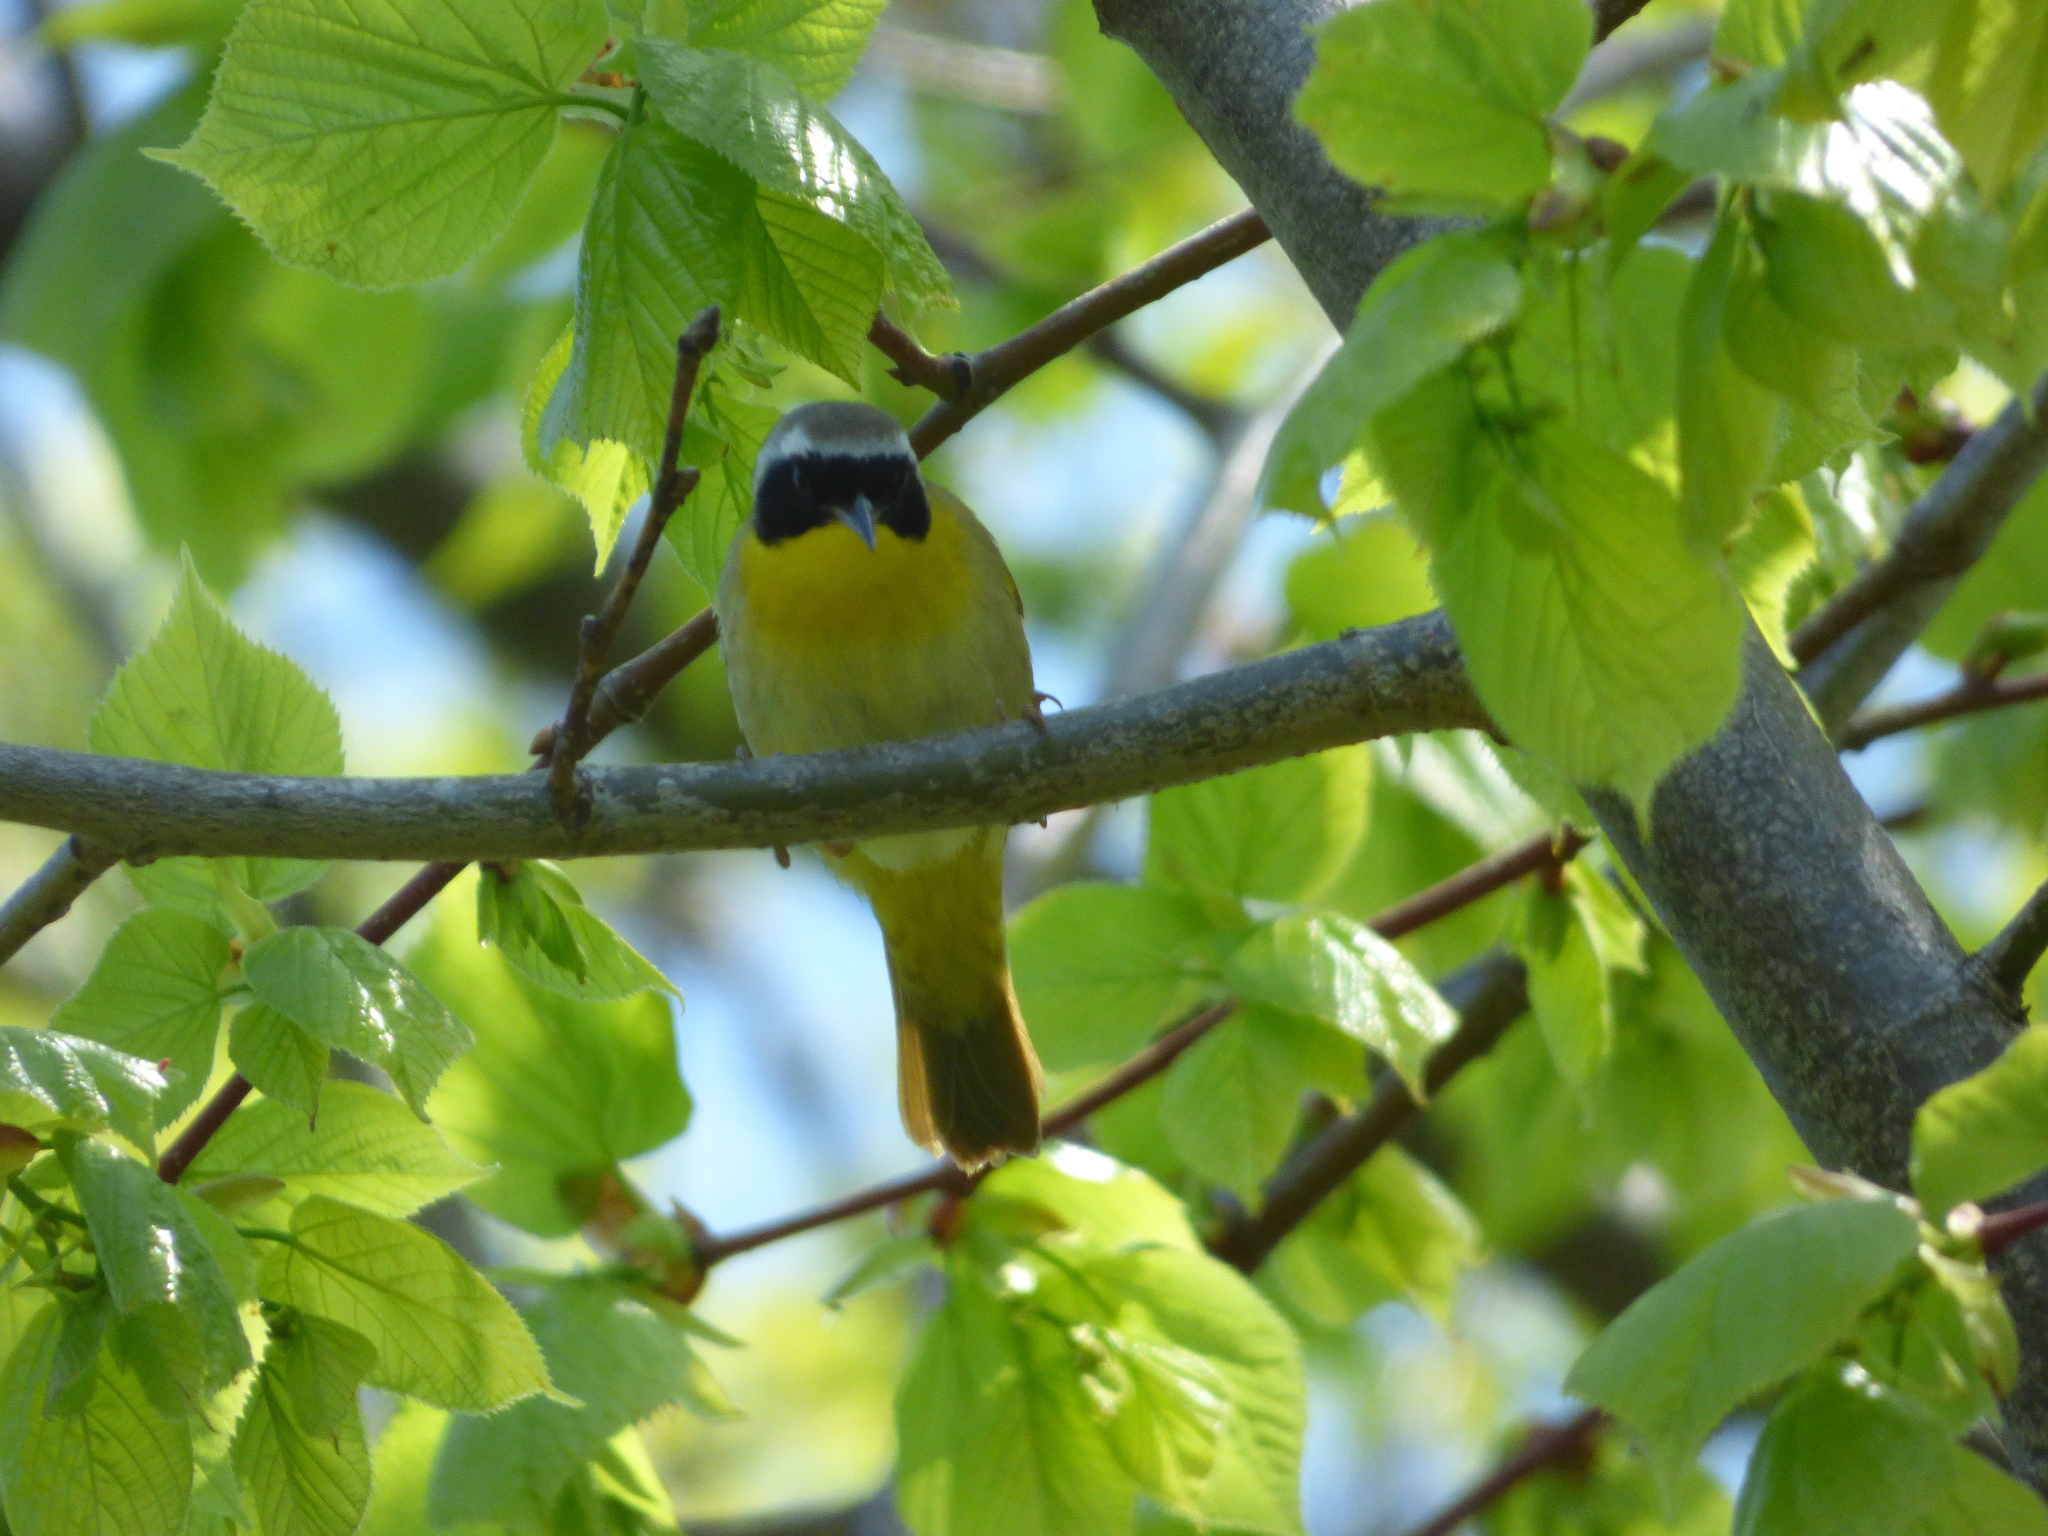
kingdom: Animalia
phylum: Chordata
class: Aves
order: Passeriformes
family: Parulidae
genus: Geothlypis
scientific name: Geothlypis trichas
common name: Common yellowthroat
